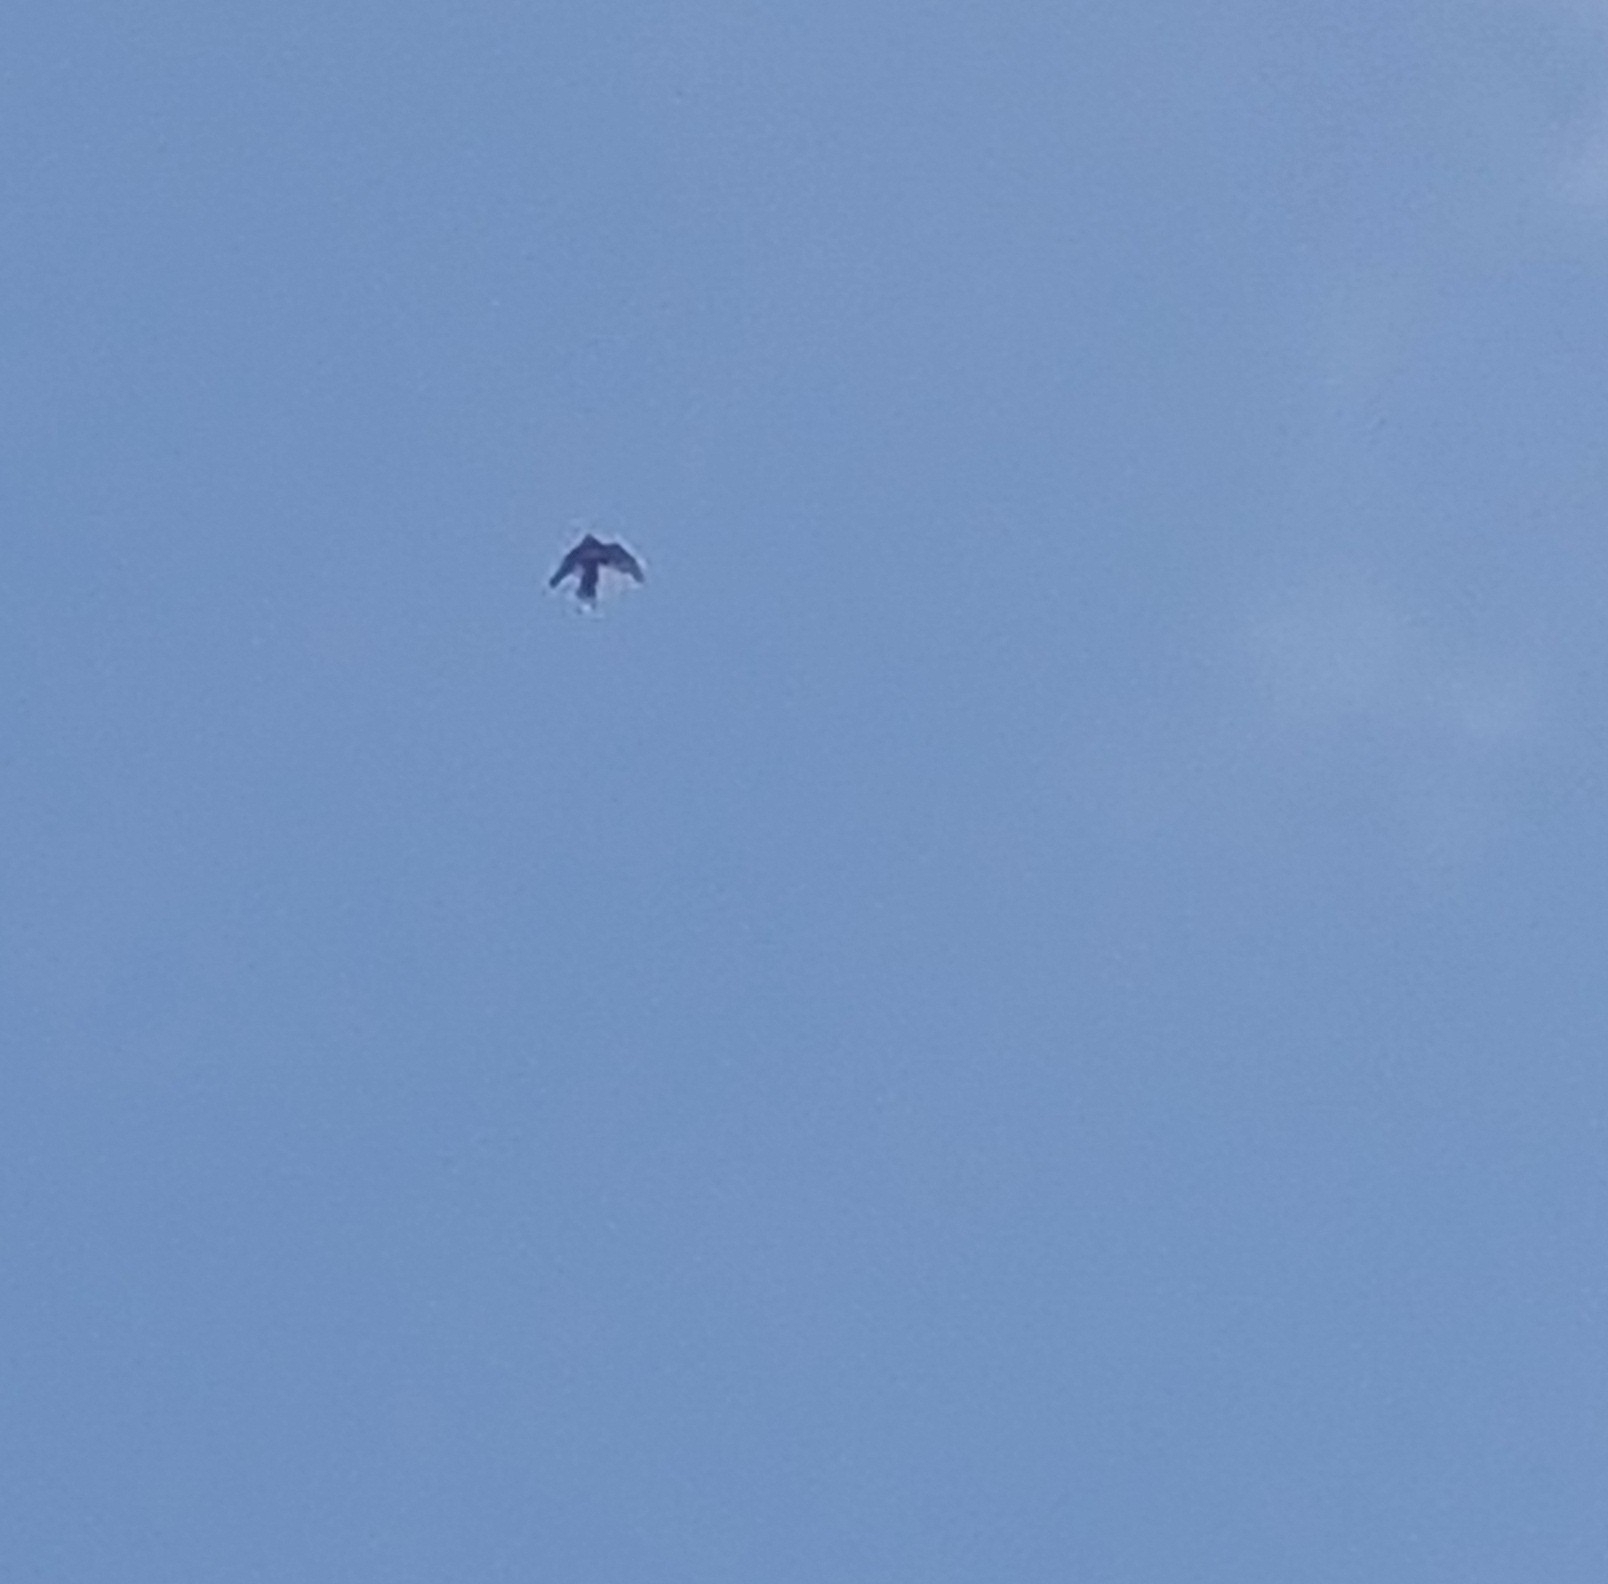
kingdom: Animalia
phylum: Chordata
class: Aves
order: Falconiformes
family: Falconidae
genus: Falco
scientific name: Falco novaeseelandiae
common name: New zealand falcon
